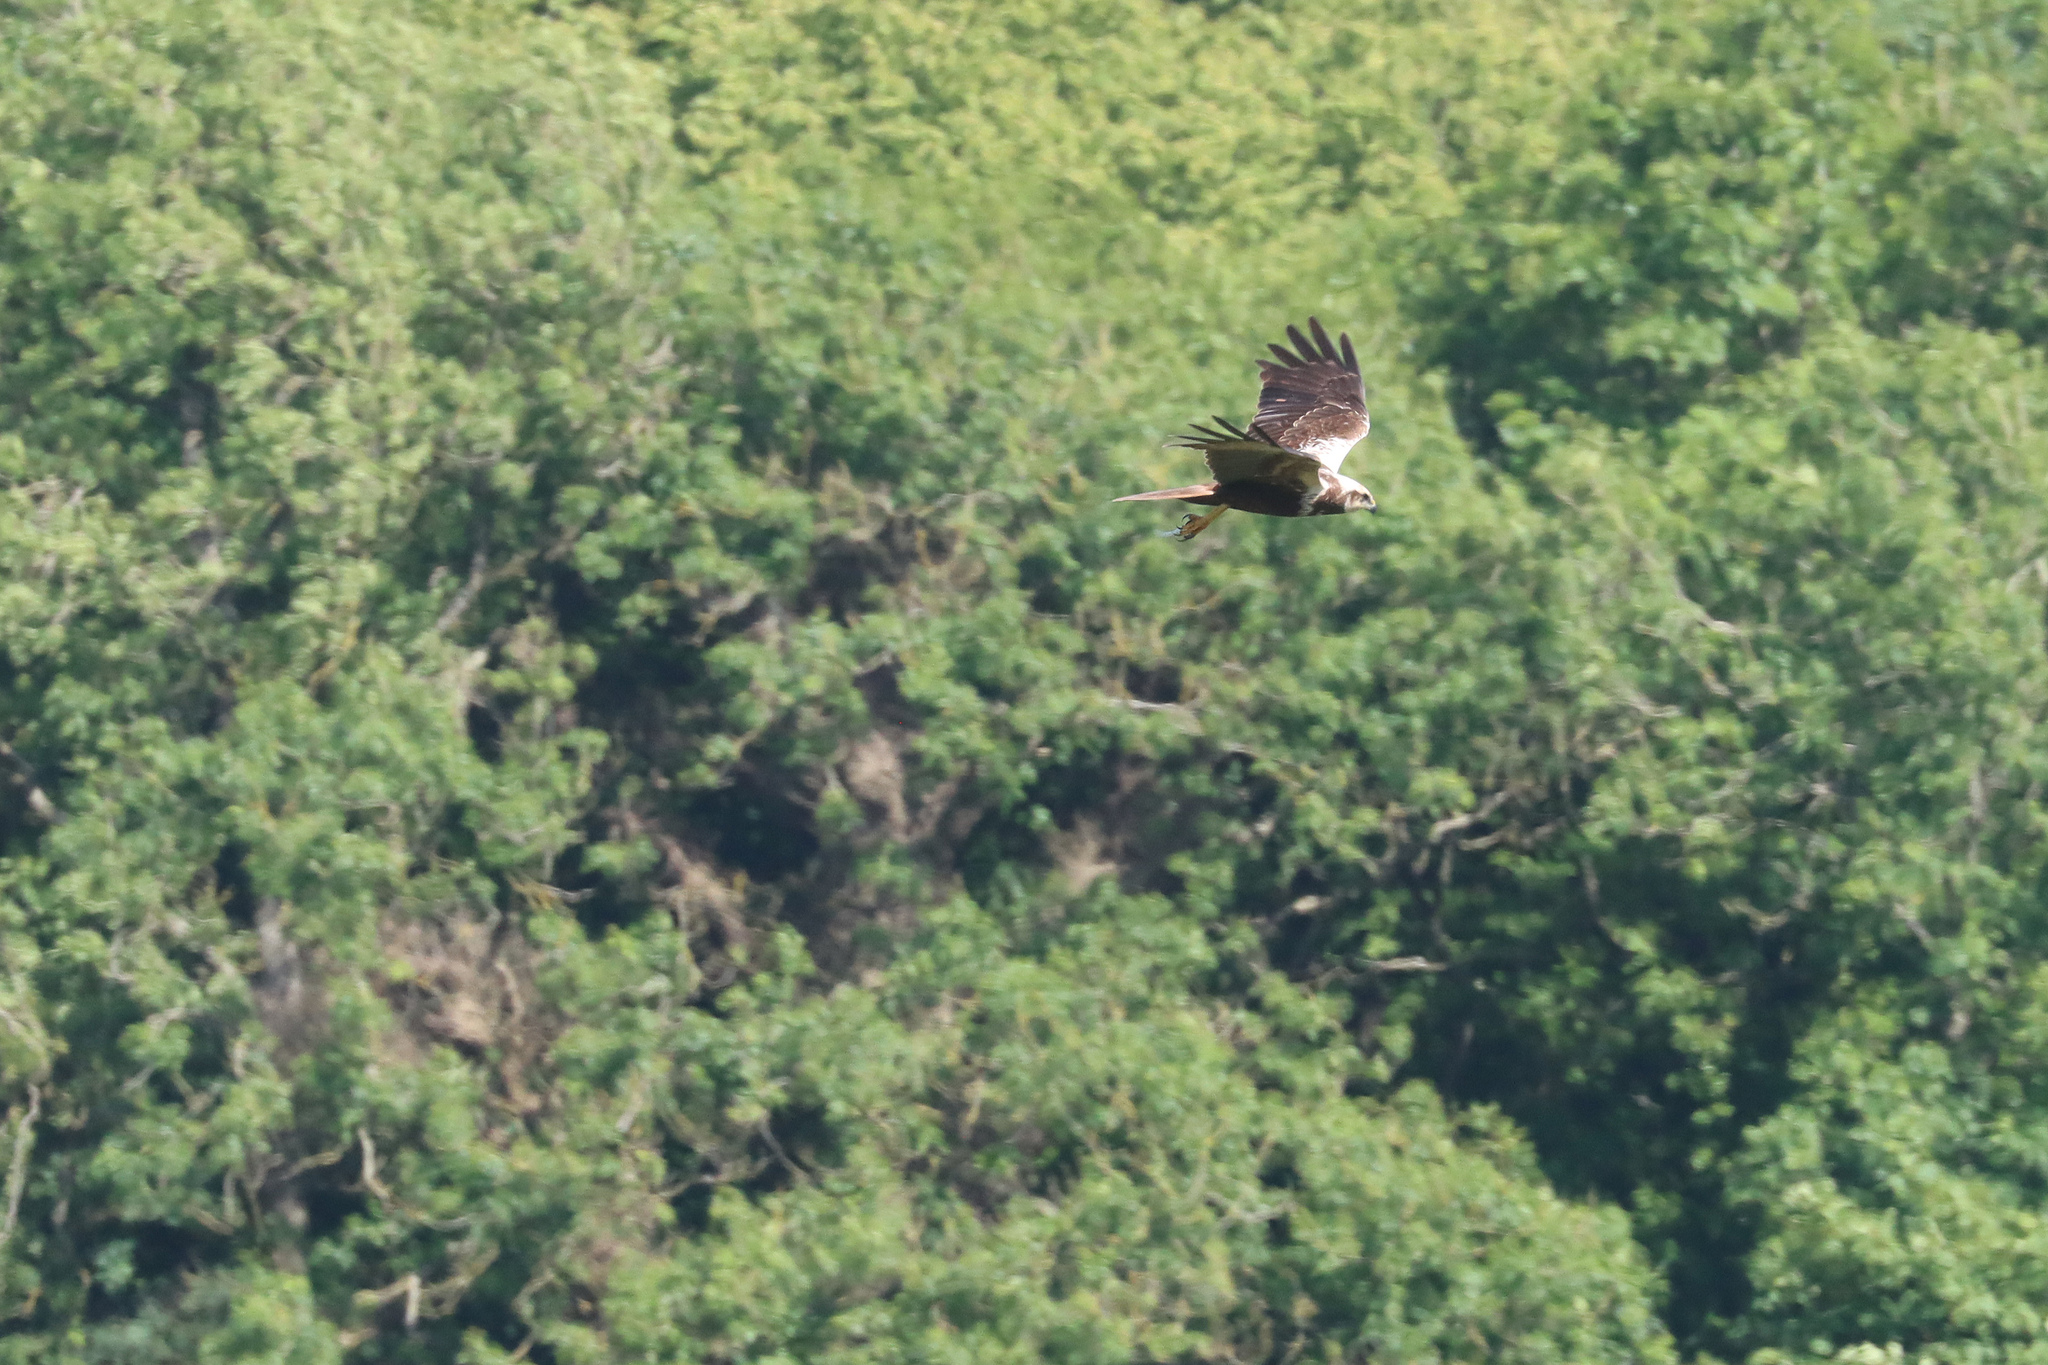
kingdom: Animalia
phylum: Chordata
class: Aves
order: Accipitriformes
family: Accipitridae
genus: Circus
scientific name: Circus aeruginosus
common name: Western marsh harrier
